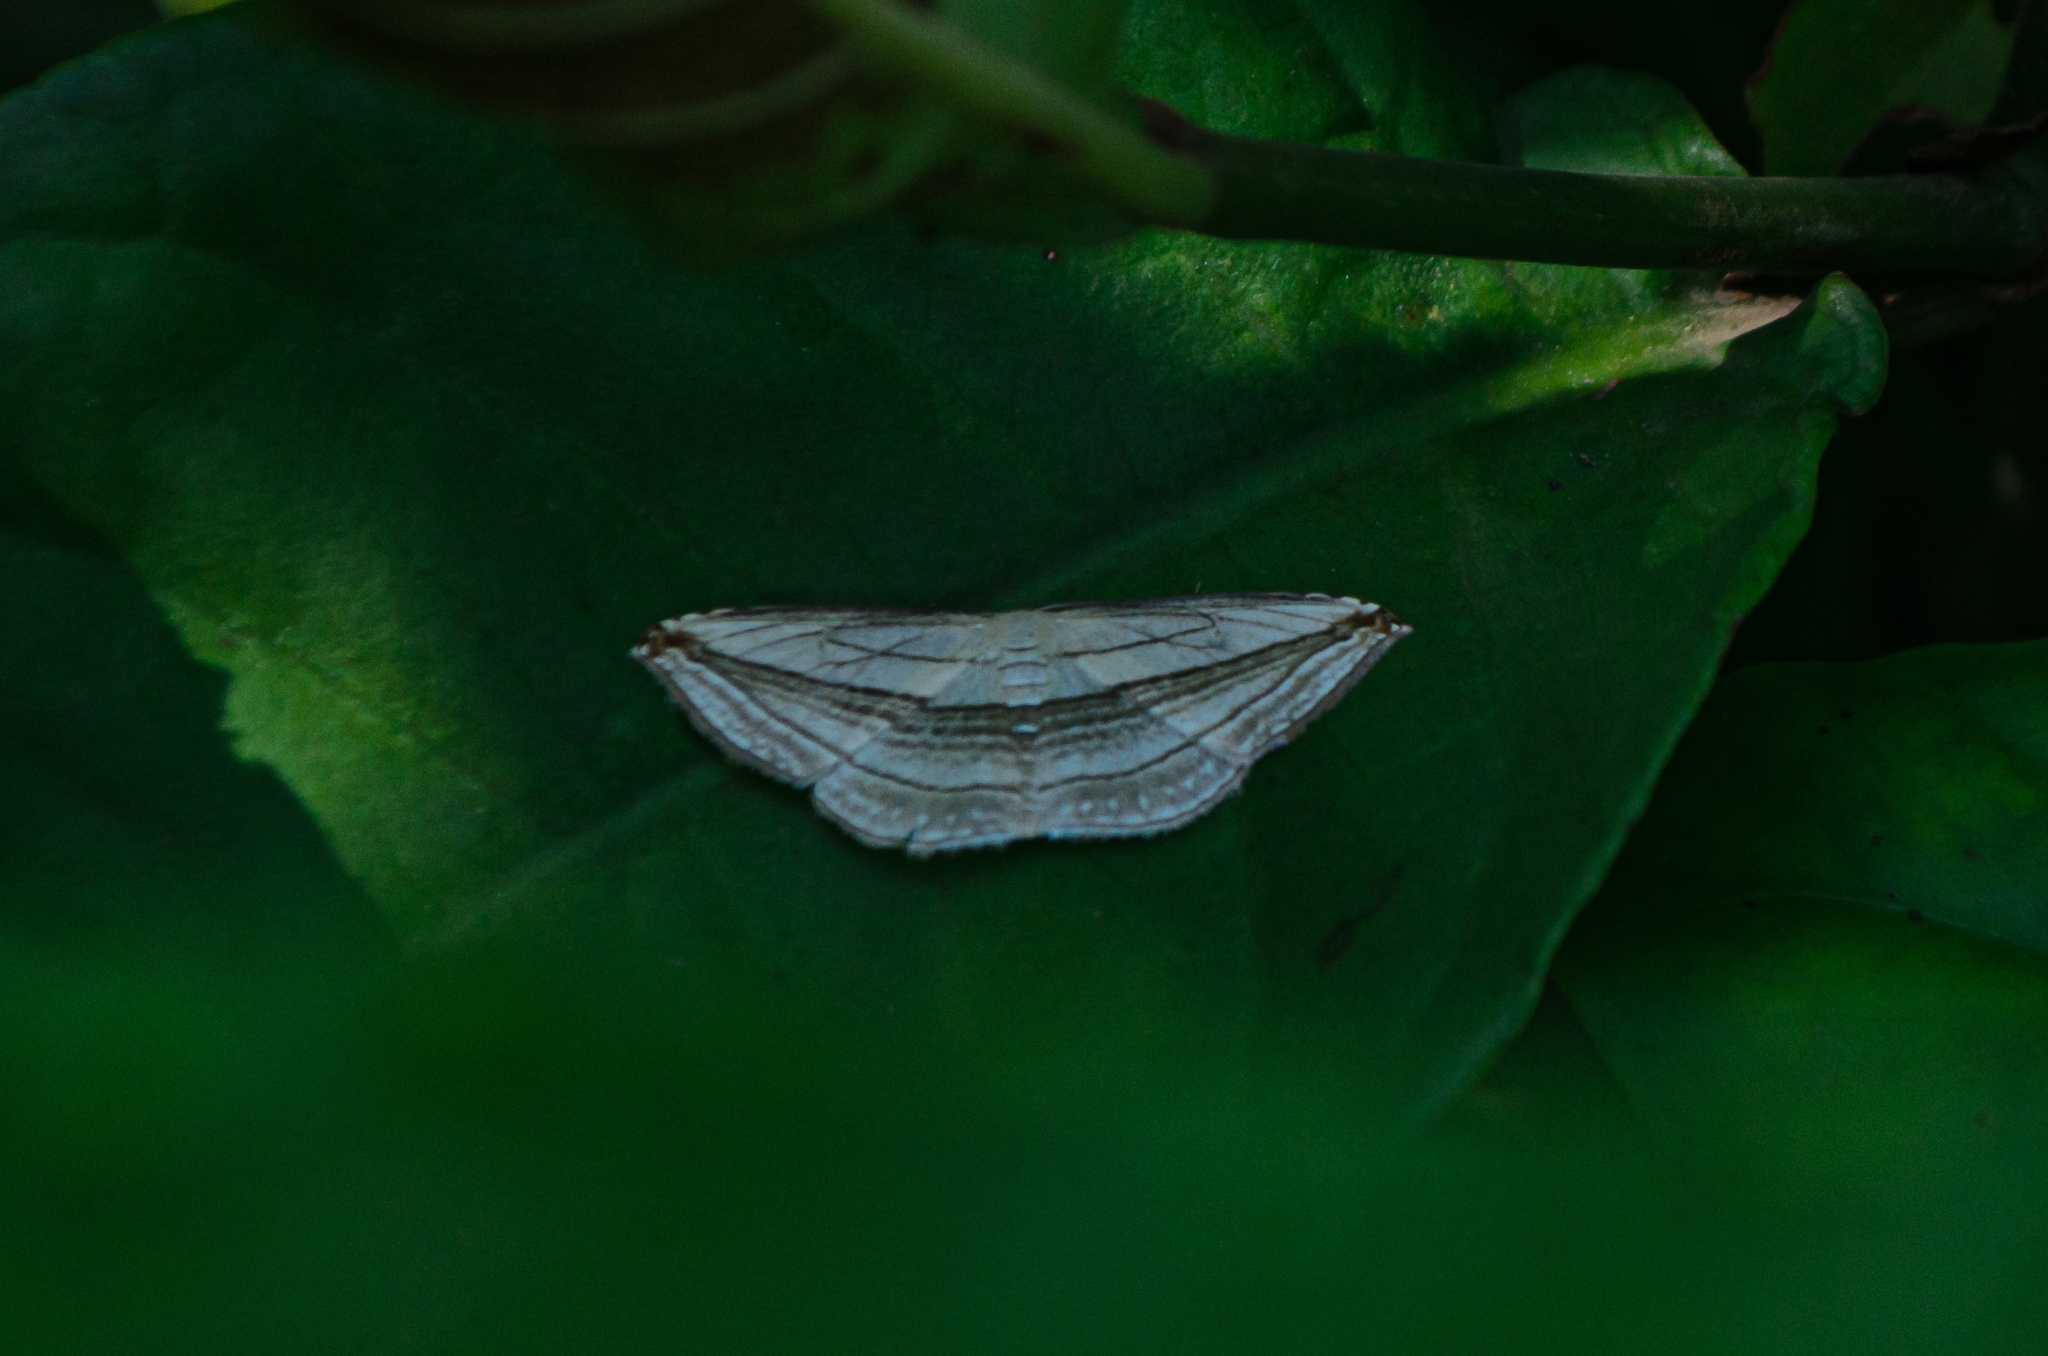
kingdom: Animalia
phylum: Arthropoda
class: Insecta
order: Lepidoptera
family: Geometridae
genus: Arcobara
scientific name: Arcobara tergeminaria
